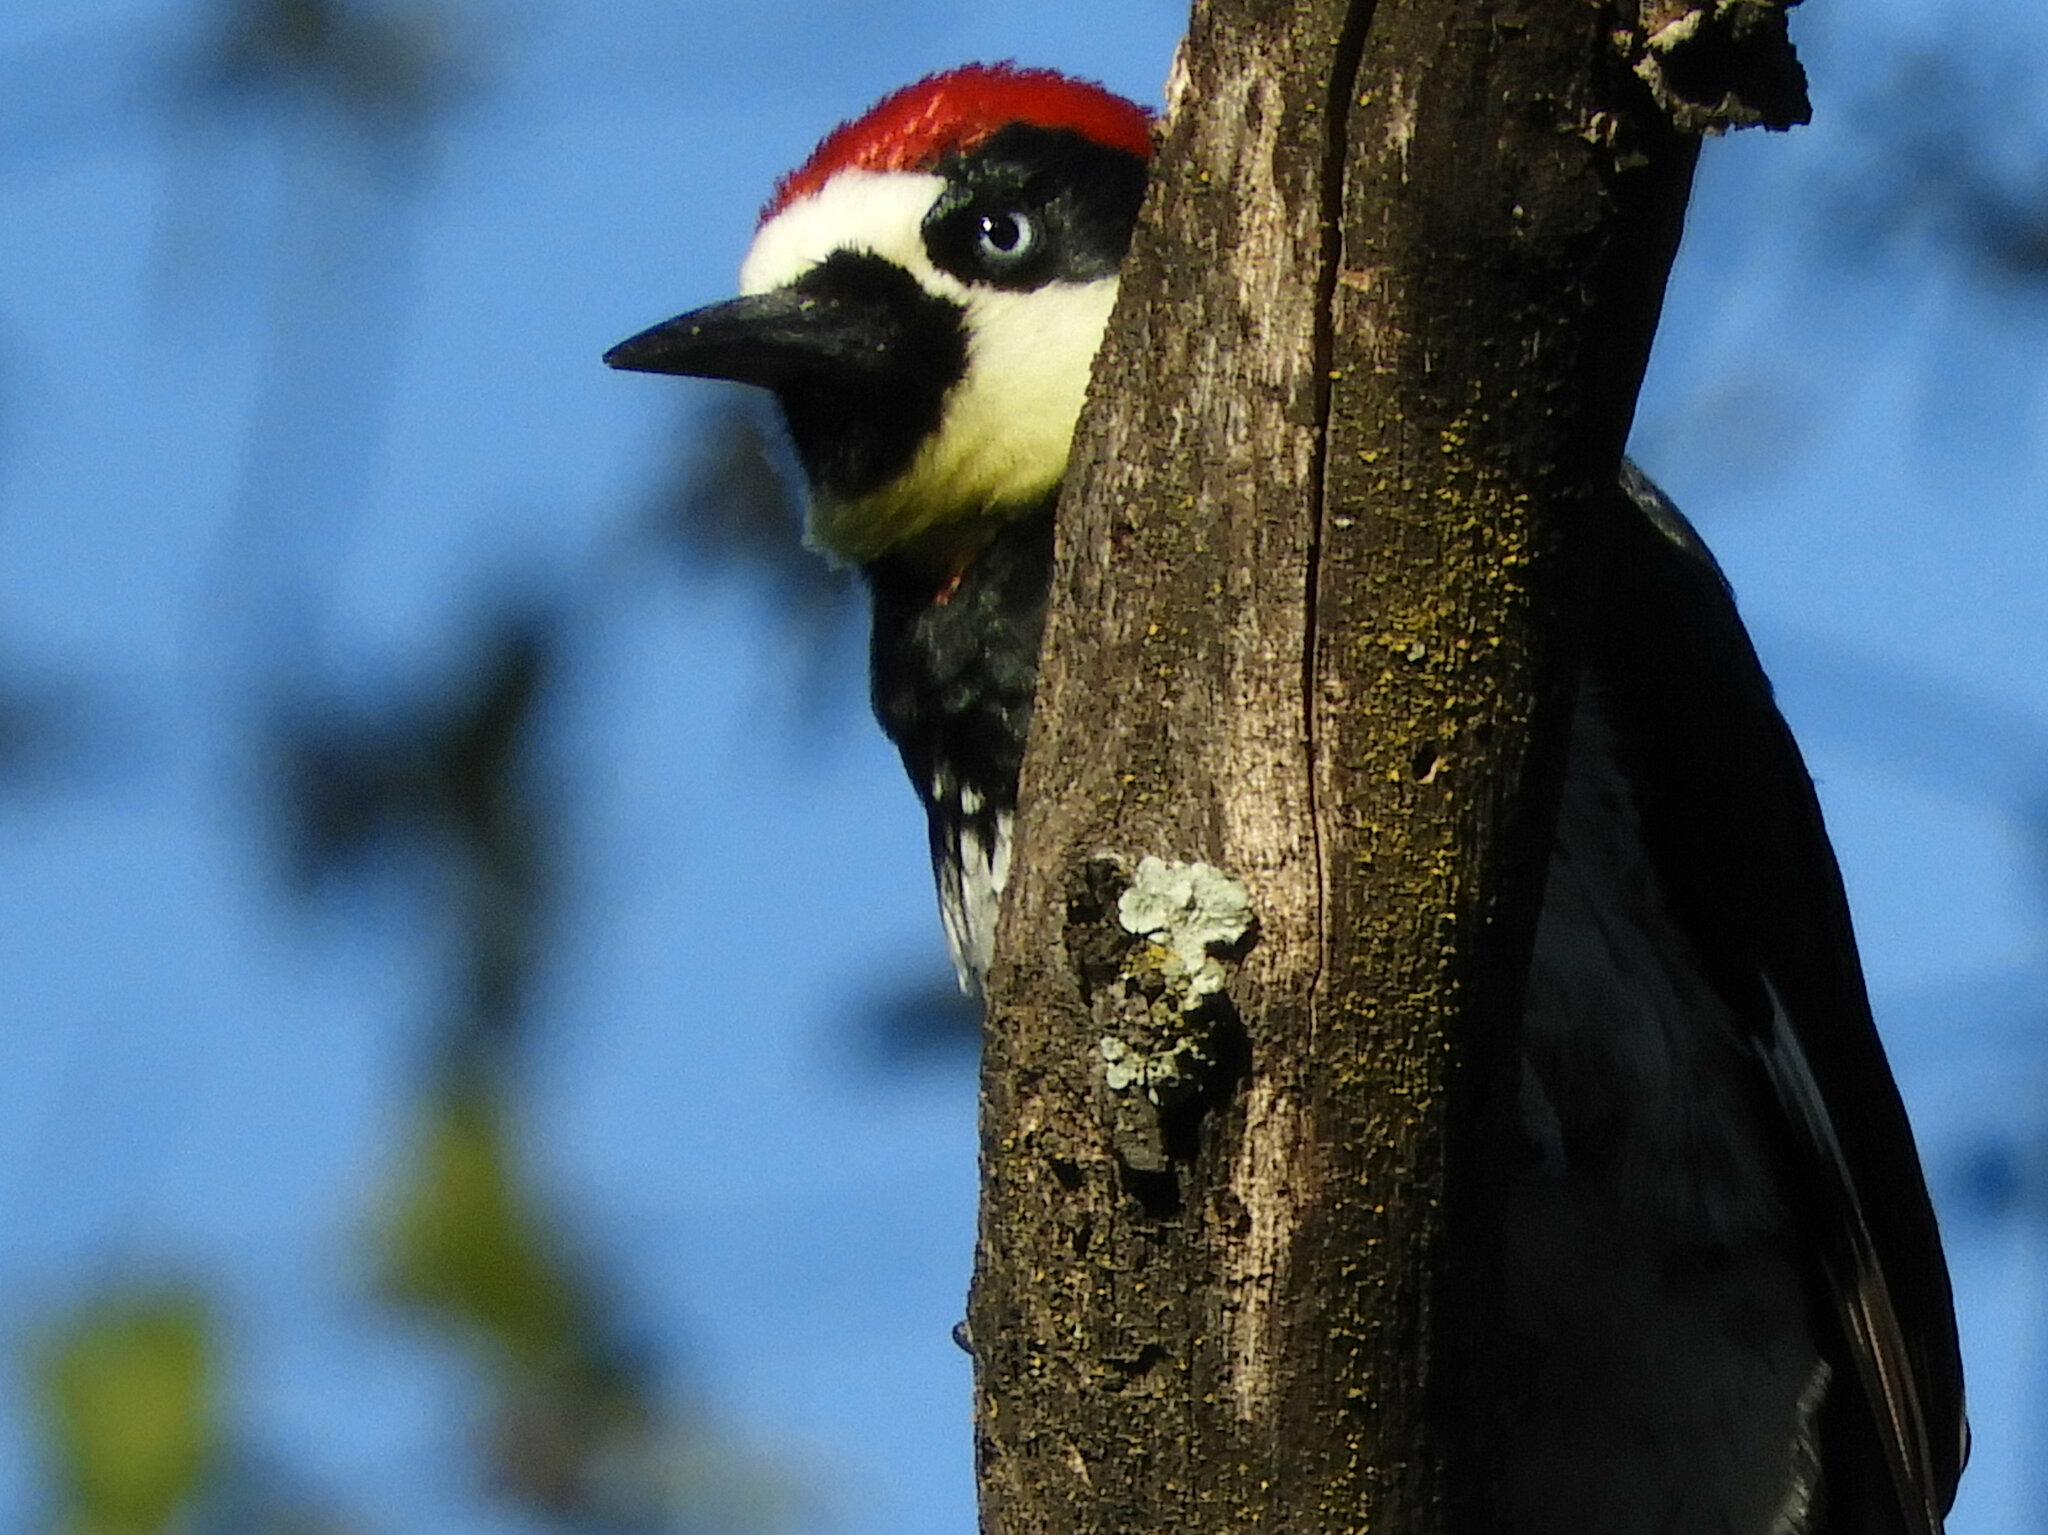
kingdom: Animalia
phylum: Chordata
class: Aves
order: Piciformes
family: Picidae
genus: Melanerpes
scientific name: Melanerpes formicivorus
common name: Acorn woodpecker
